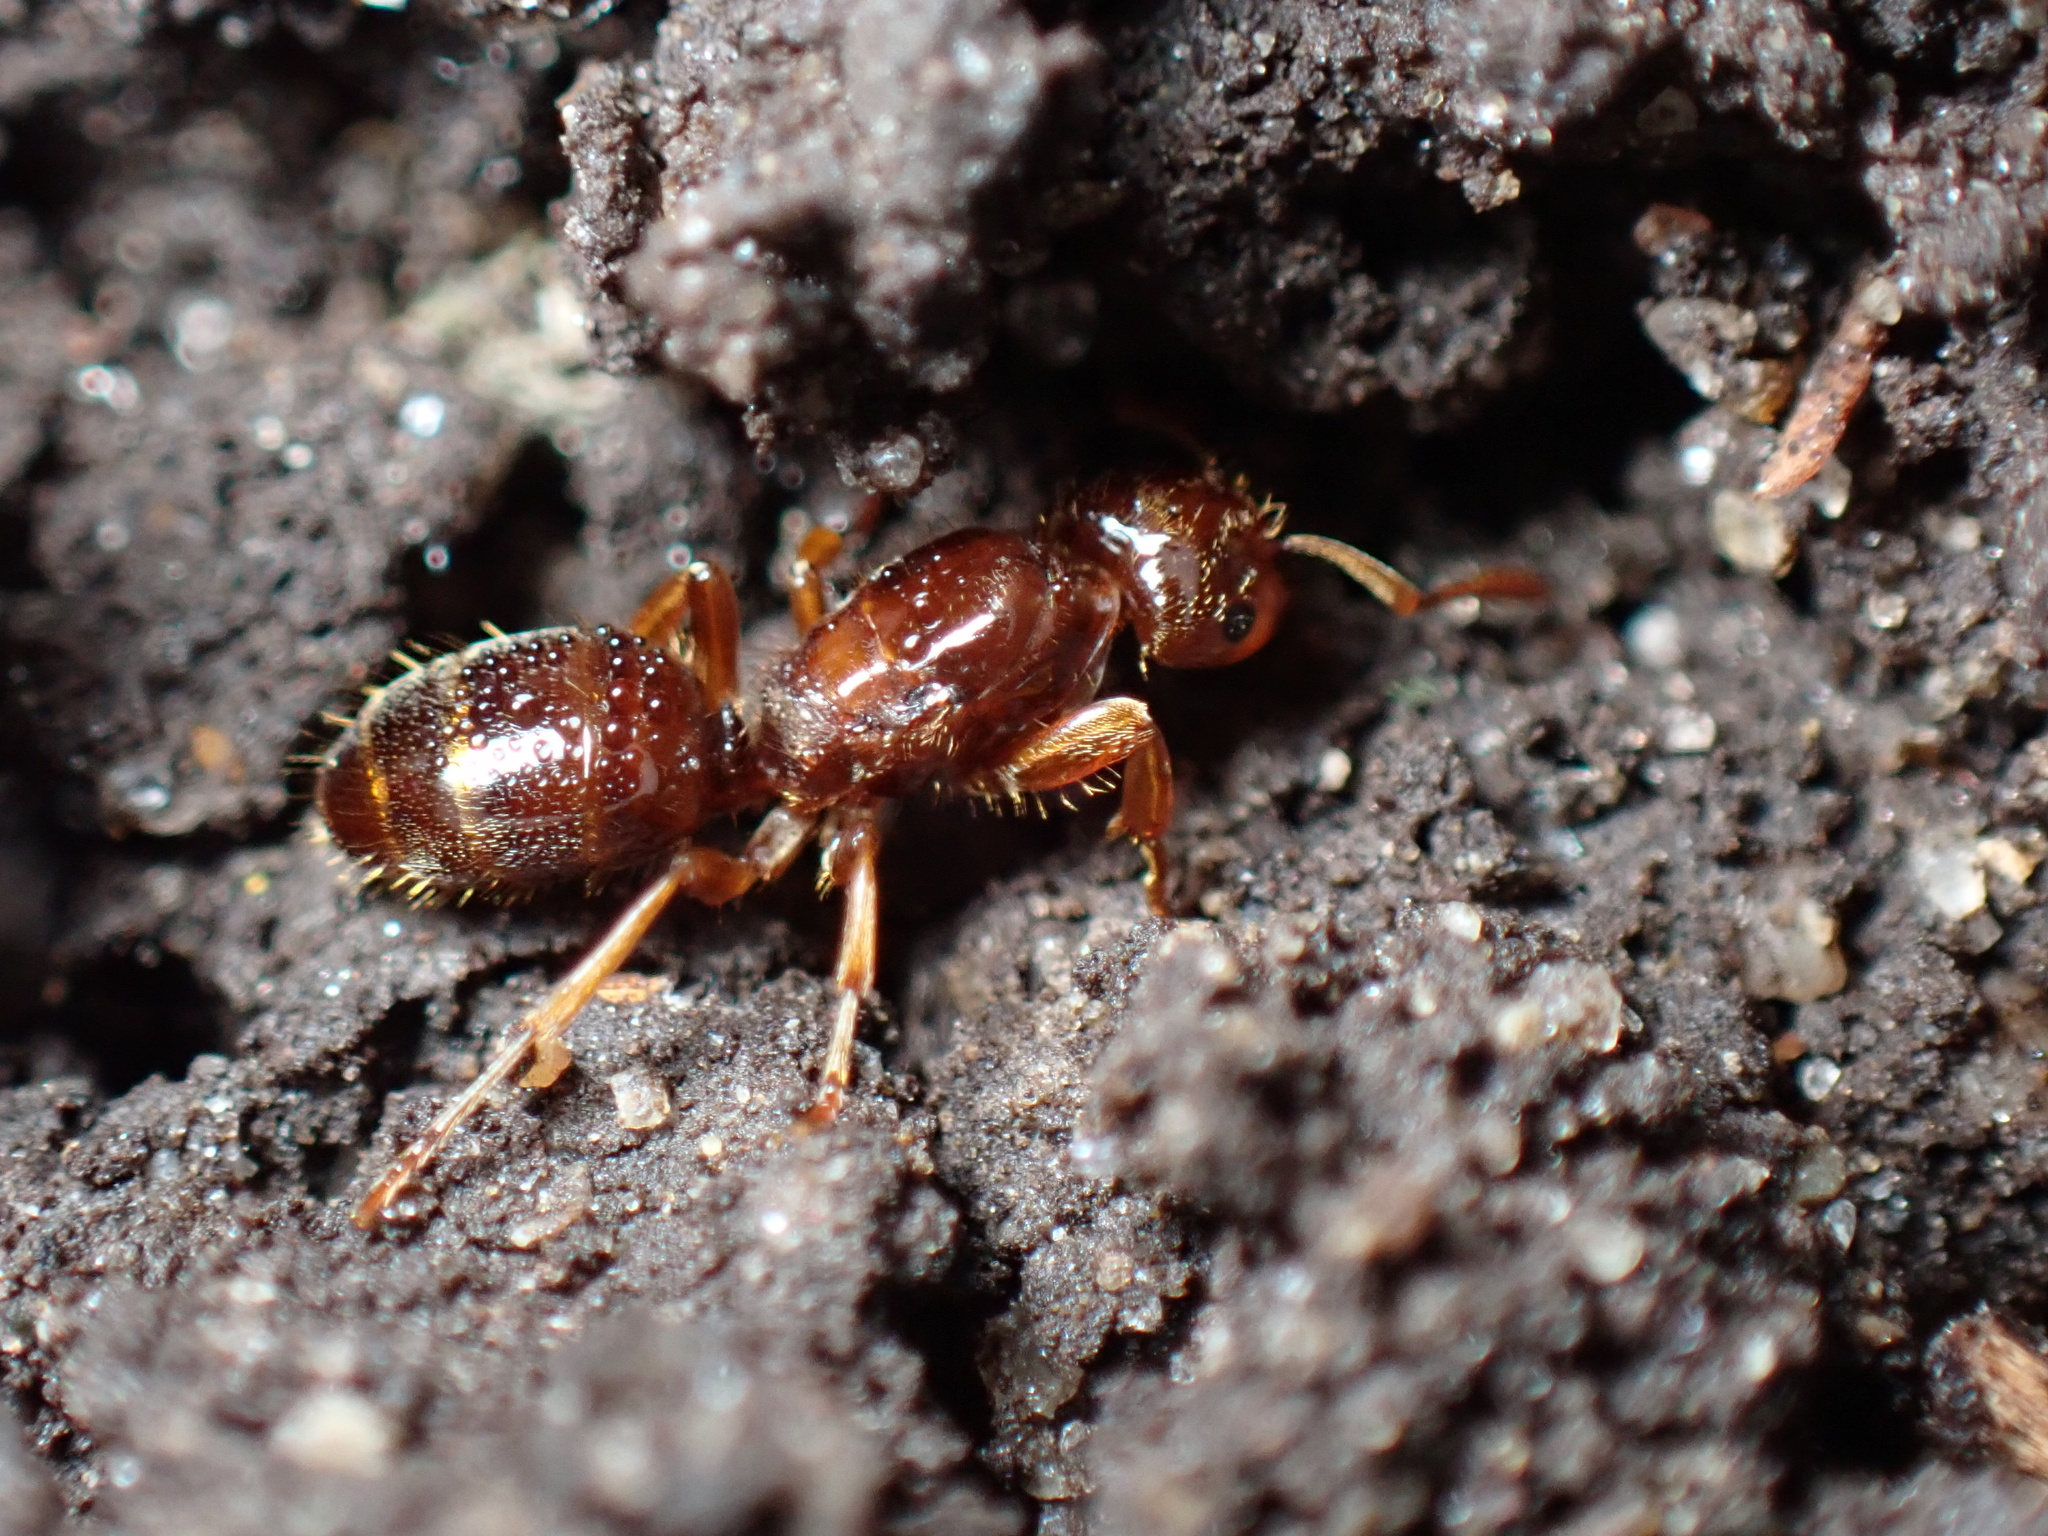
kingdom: Animalia
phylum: Arthropoda
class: Insecta
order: Hymenoptera
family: Formicidae
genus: Lasius
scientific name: Lasius claviger
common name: Common citronella ant
